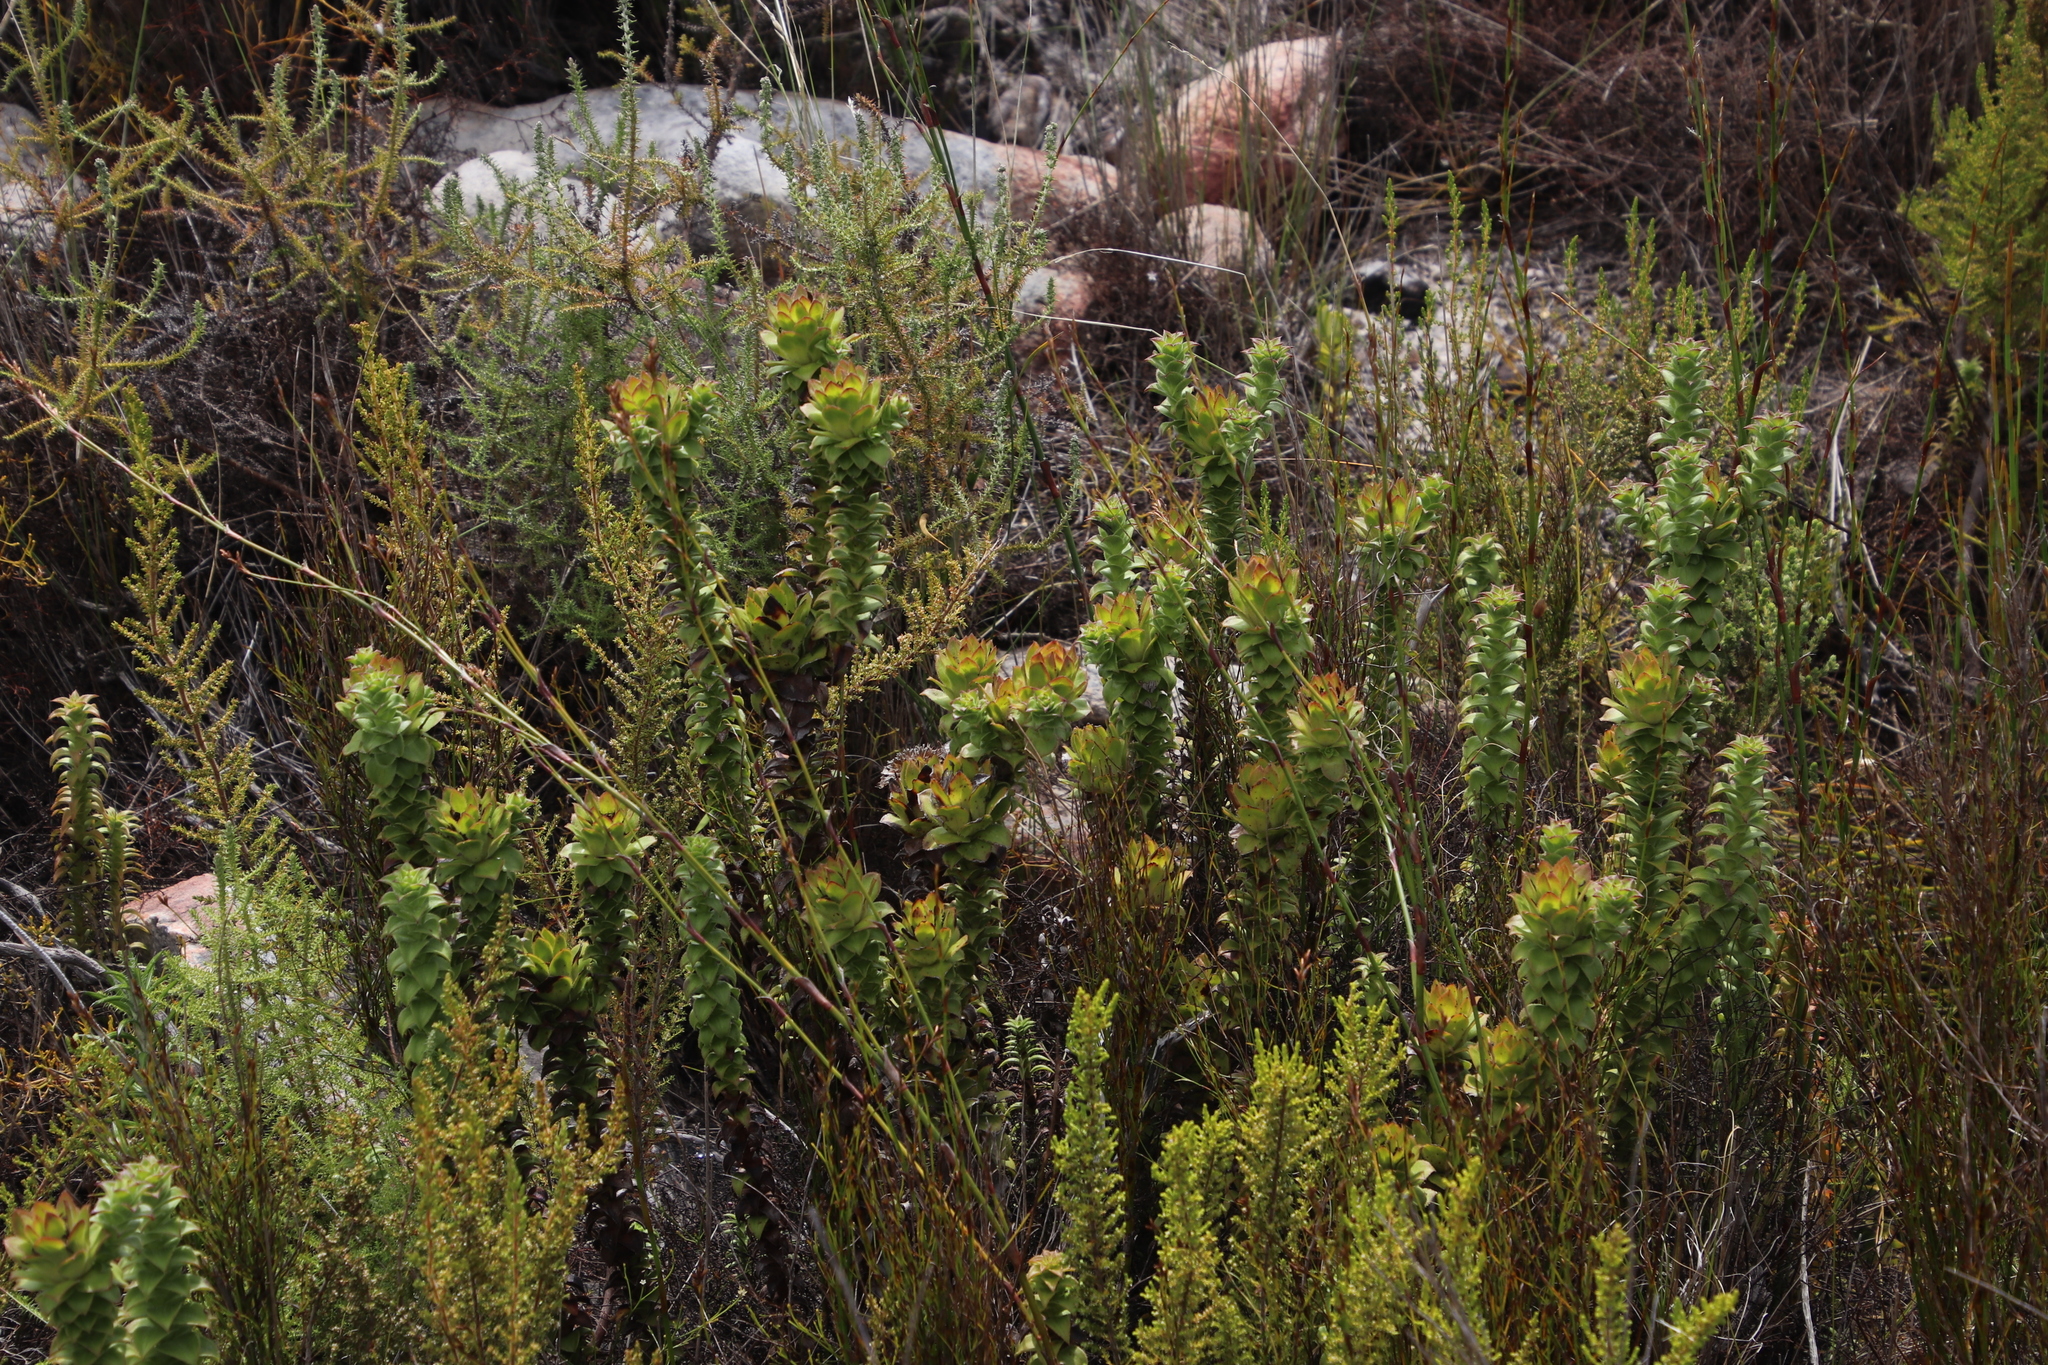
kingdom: Plantae
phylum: Tracheophyta
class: Magnoliopsida
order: Asterales
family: Asteraceae
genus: Oedera
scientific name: Oedera imbricata
